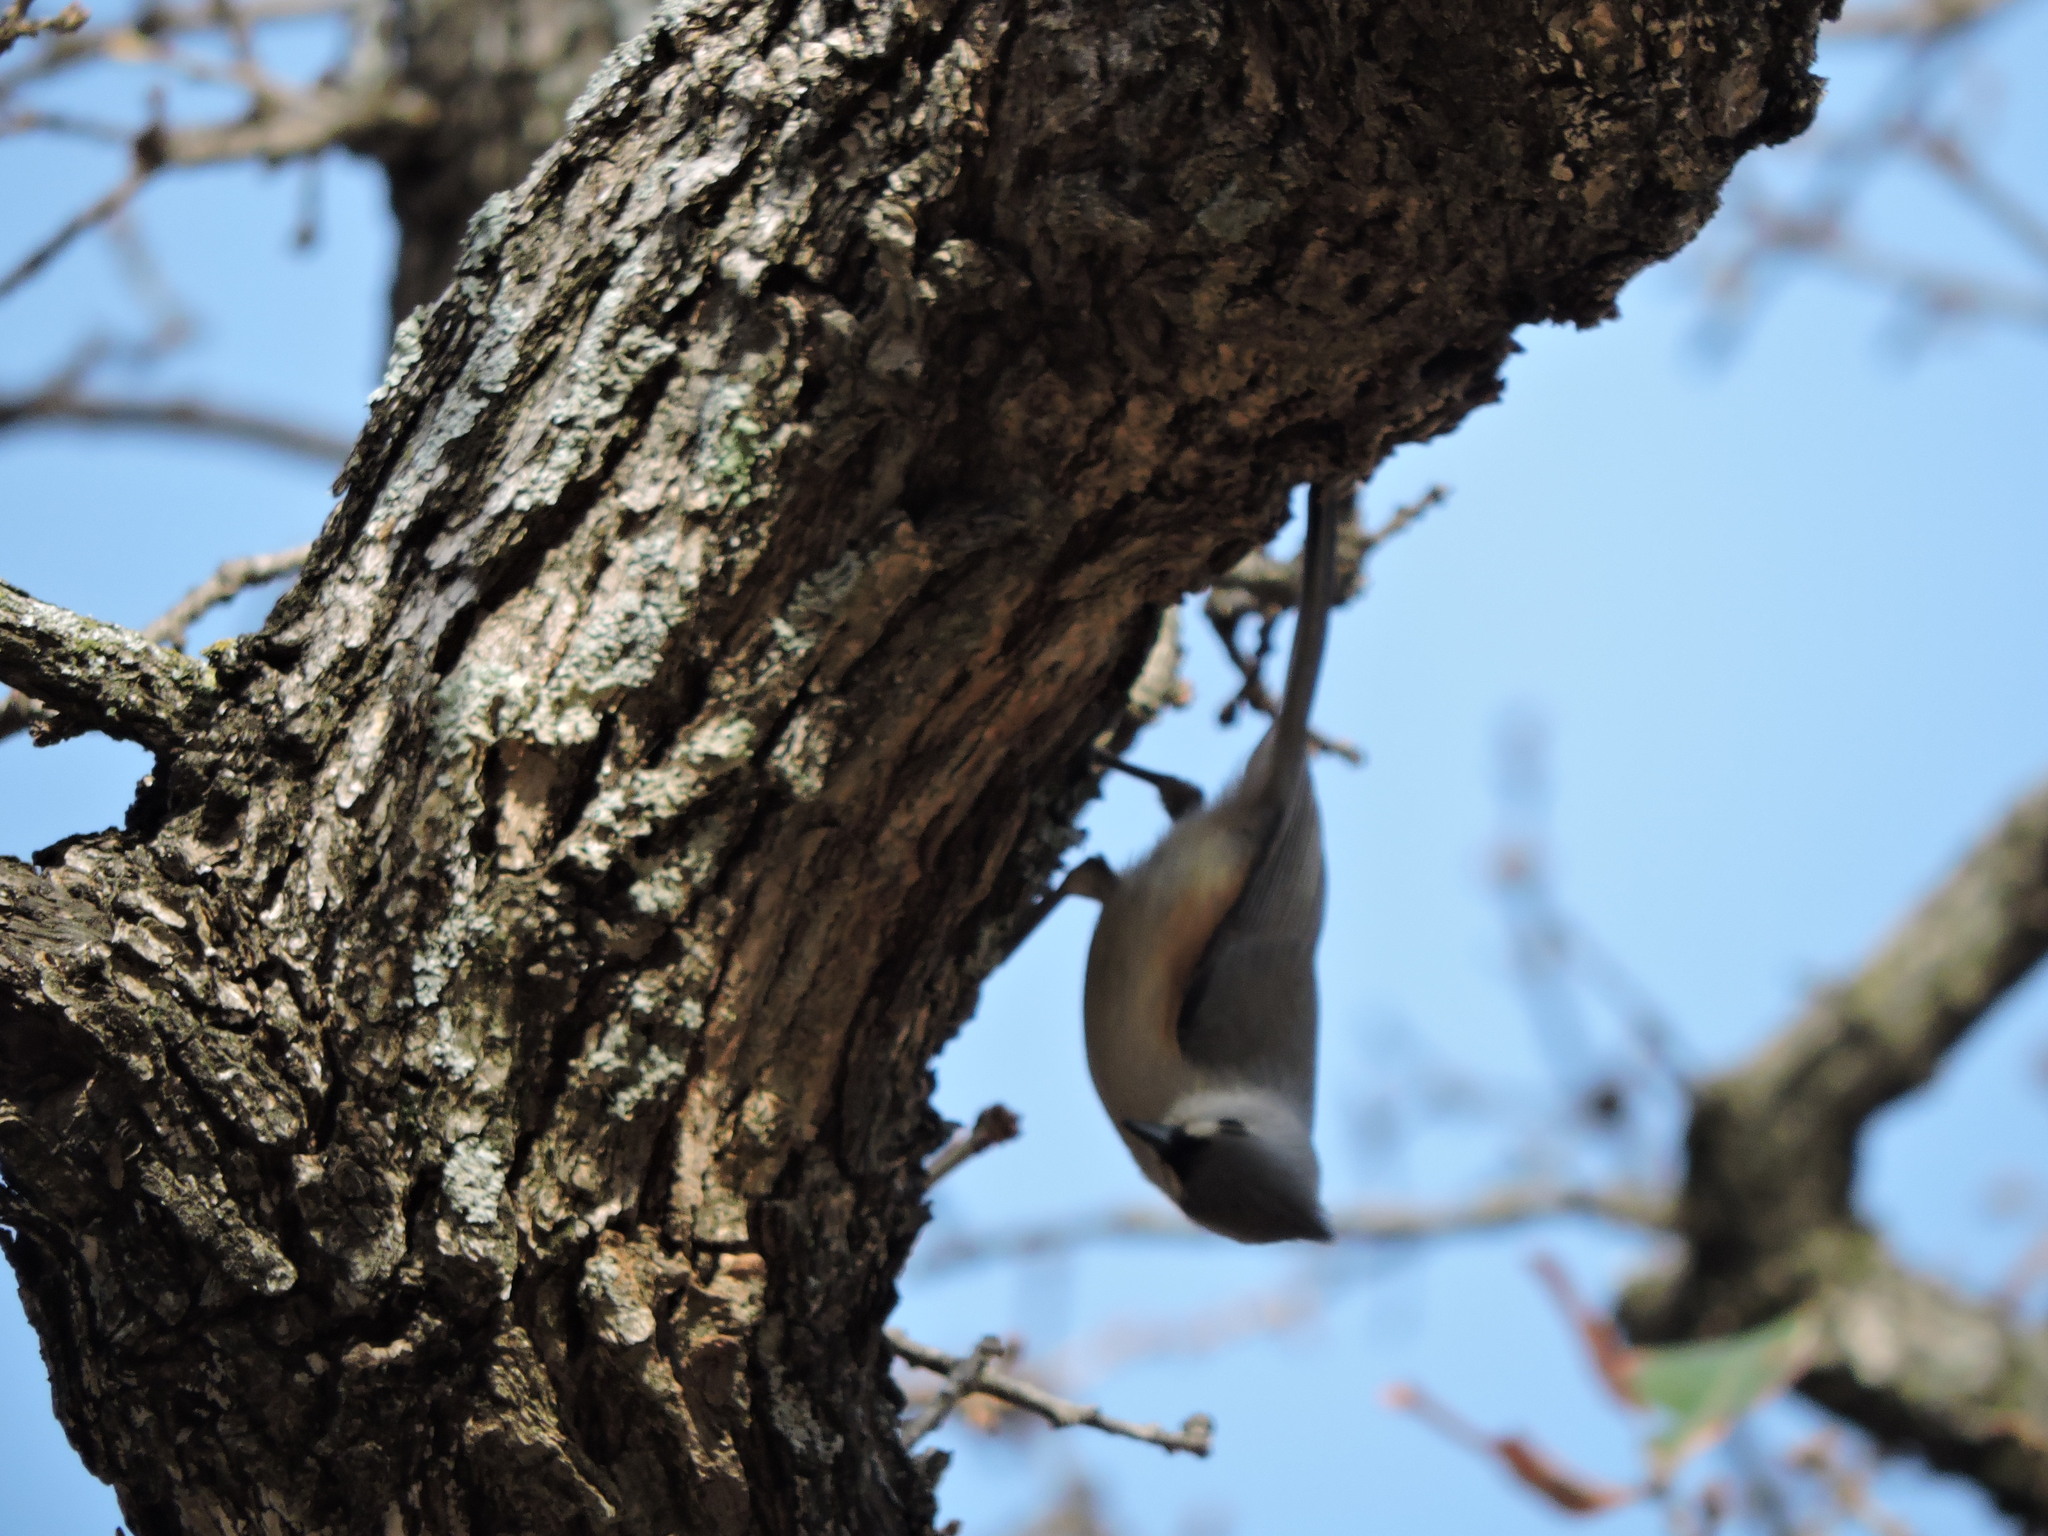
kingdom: Animalia
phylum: Chordata
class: Aves
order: Passeriformes
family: Paridae
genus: Baeolophus
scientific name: Baeolophus bicolor
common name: Tufted titmouse
